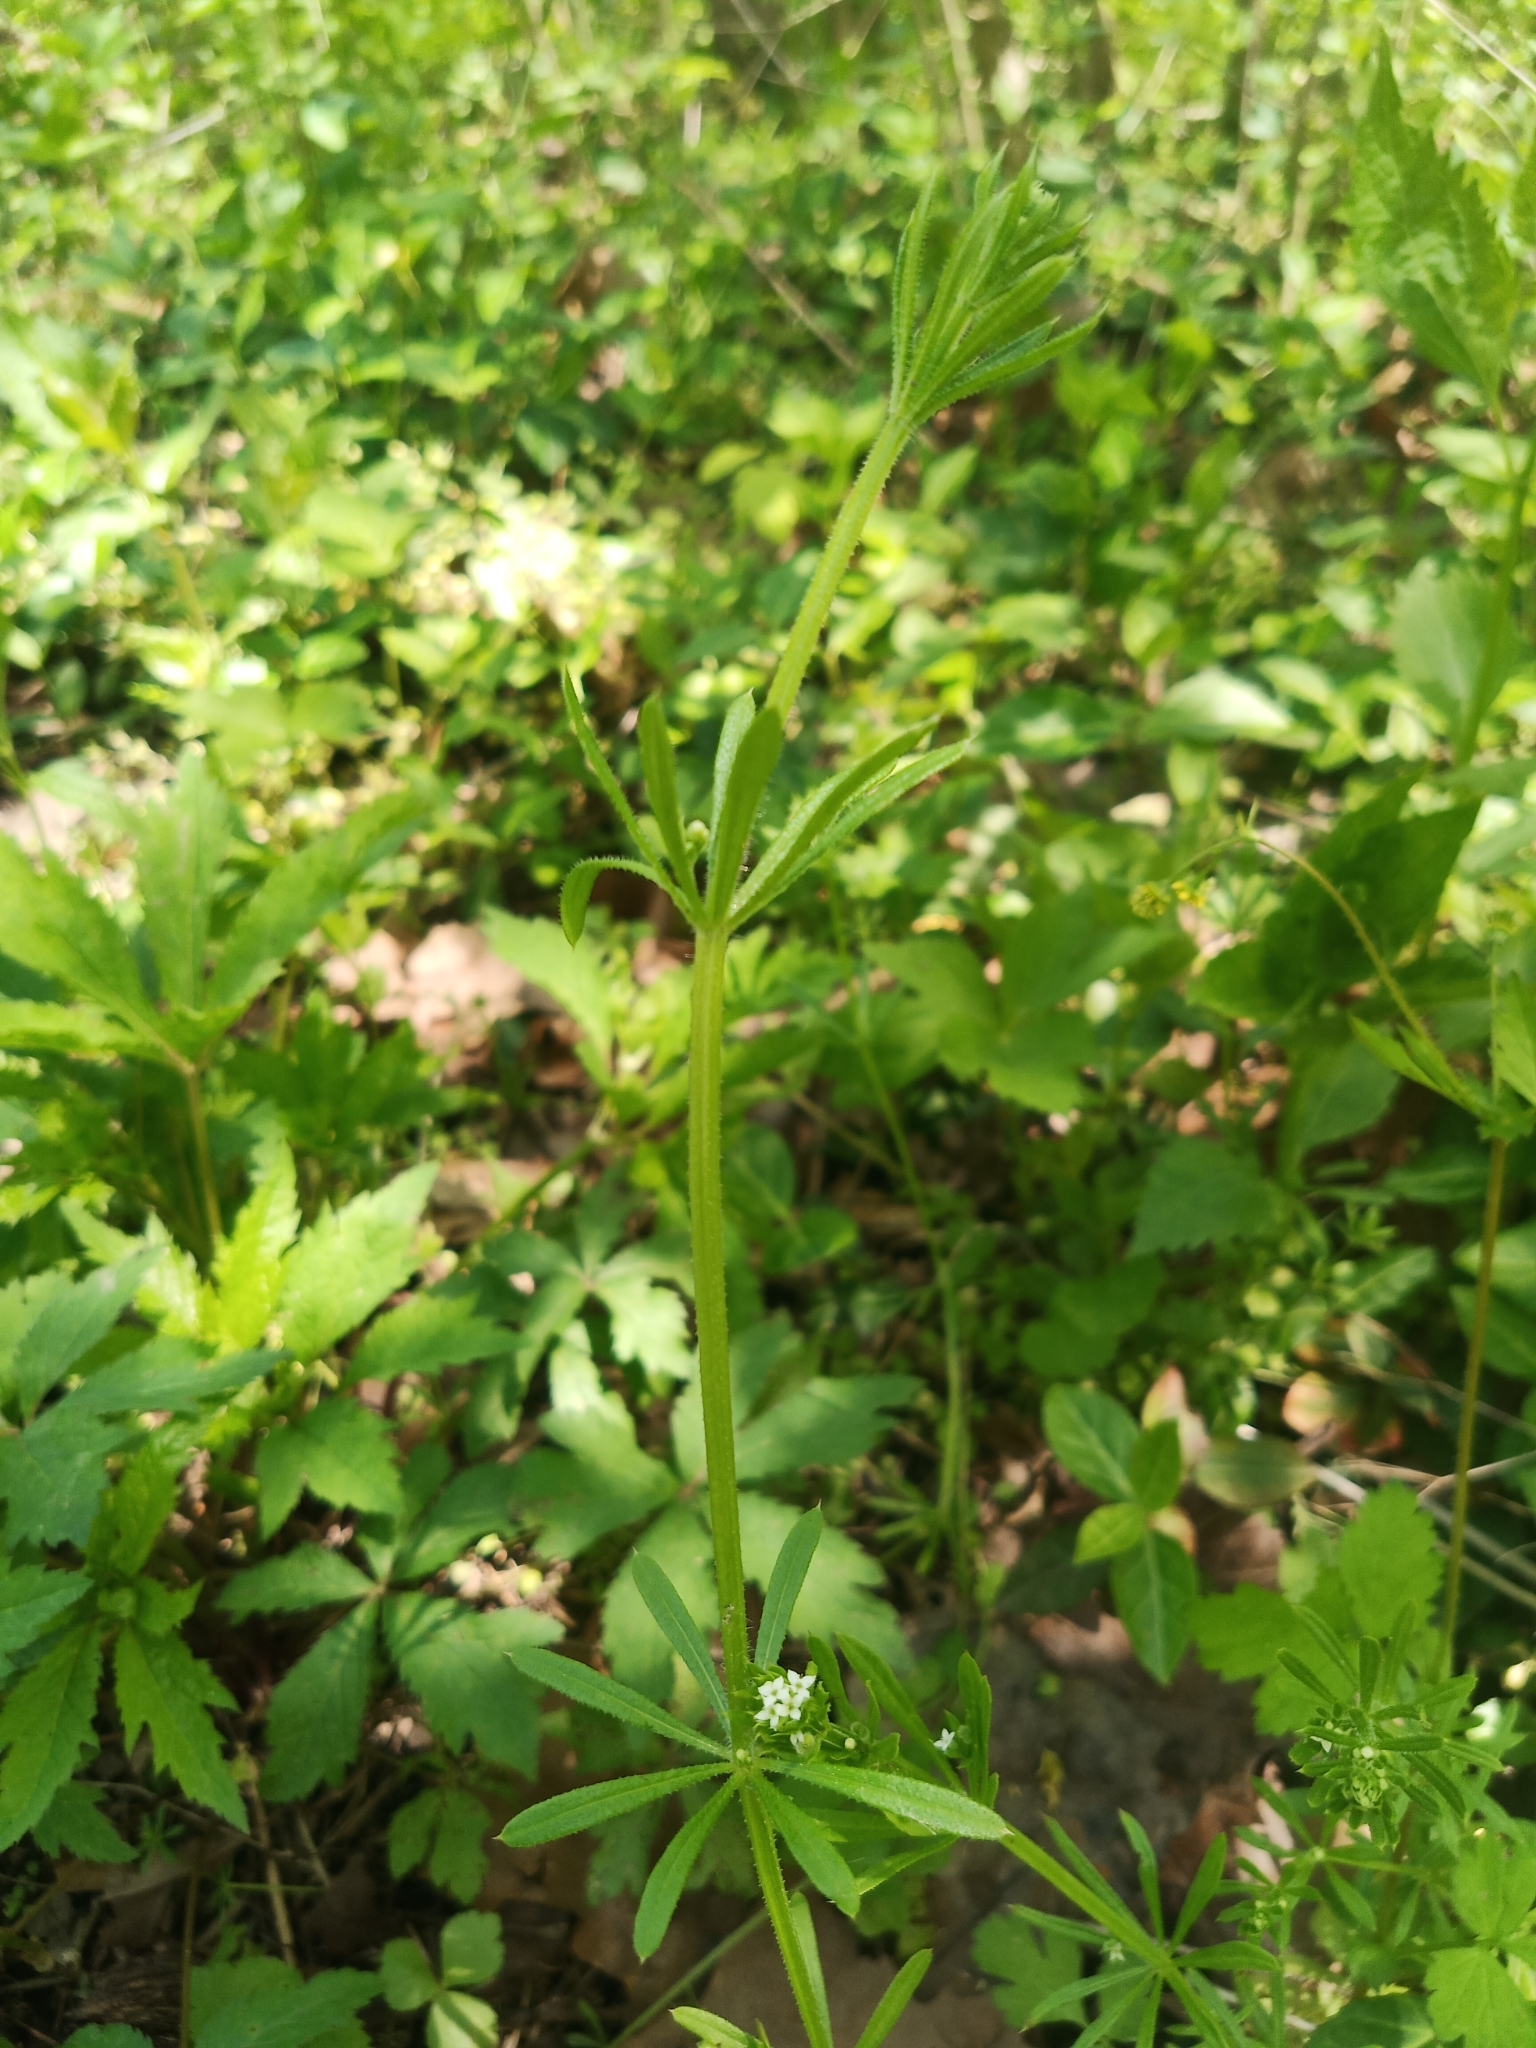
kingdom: Plantae
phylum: Tracheophyta
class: Magnoliopsida
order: Gentianales
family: Rubiaceae
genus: Galium
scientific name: Galium aparine
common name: Cleavers
